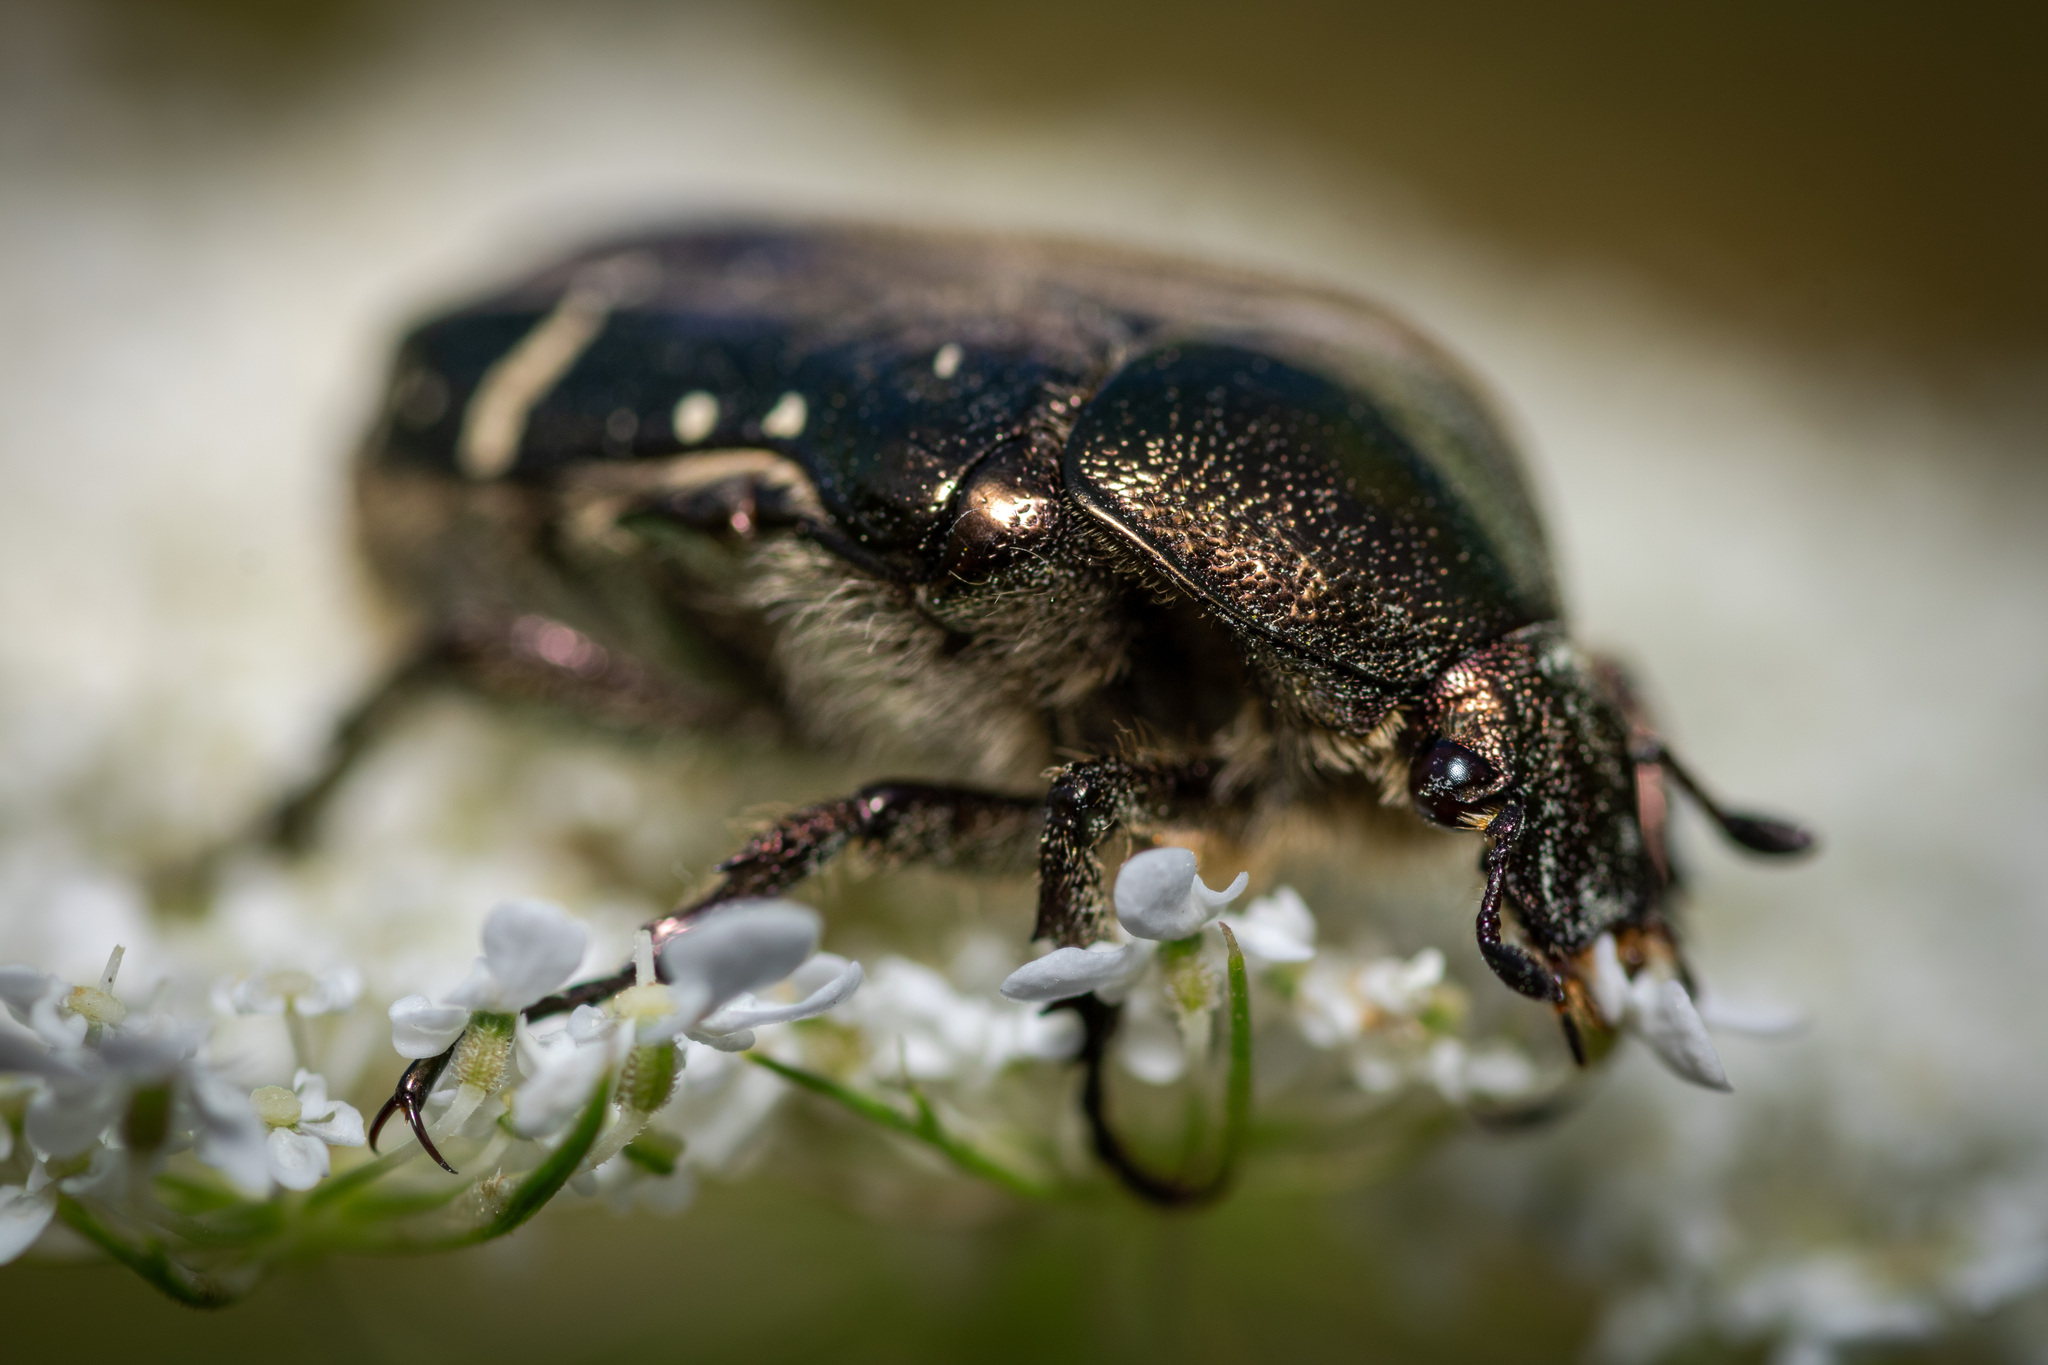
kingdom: Animalia
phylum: Arthropoda
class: Insecta
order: Coleoptera
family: Scarabaeidae
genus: Cetonia
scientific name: Cetonia aurata
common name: Rose chafer
